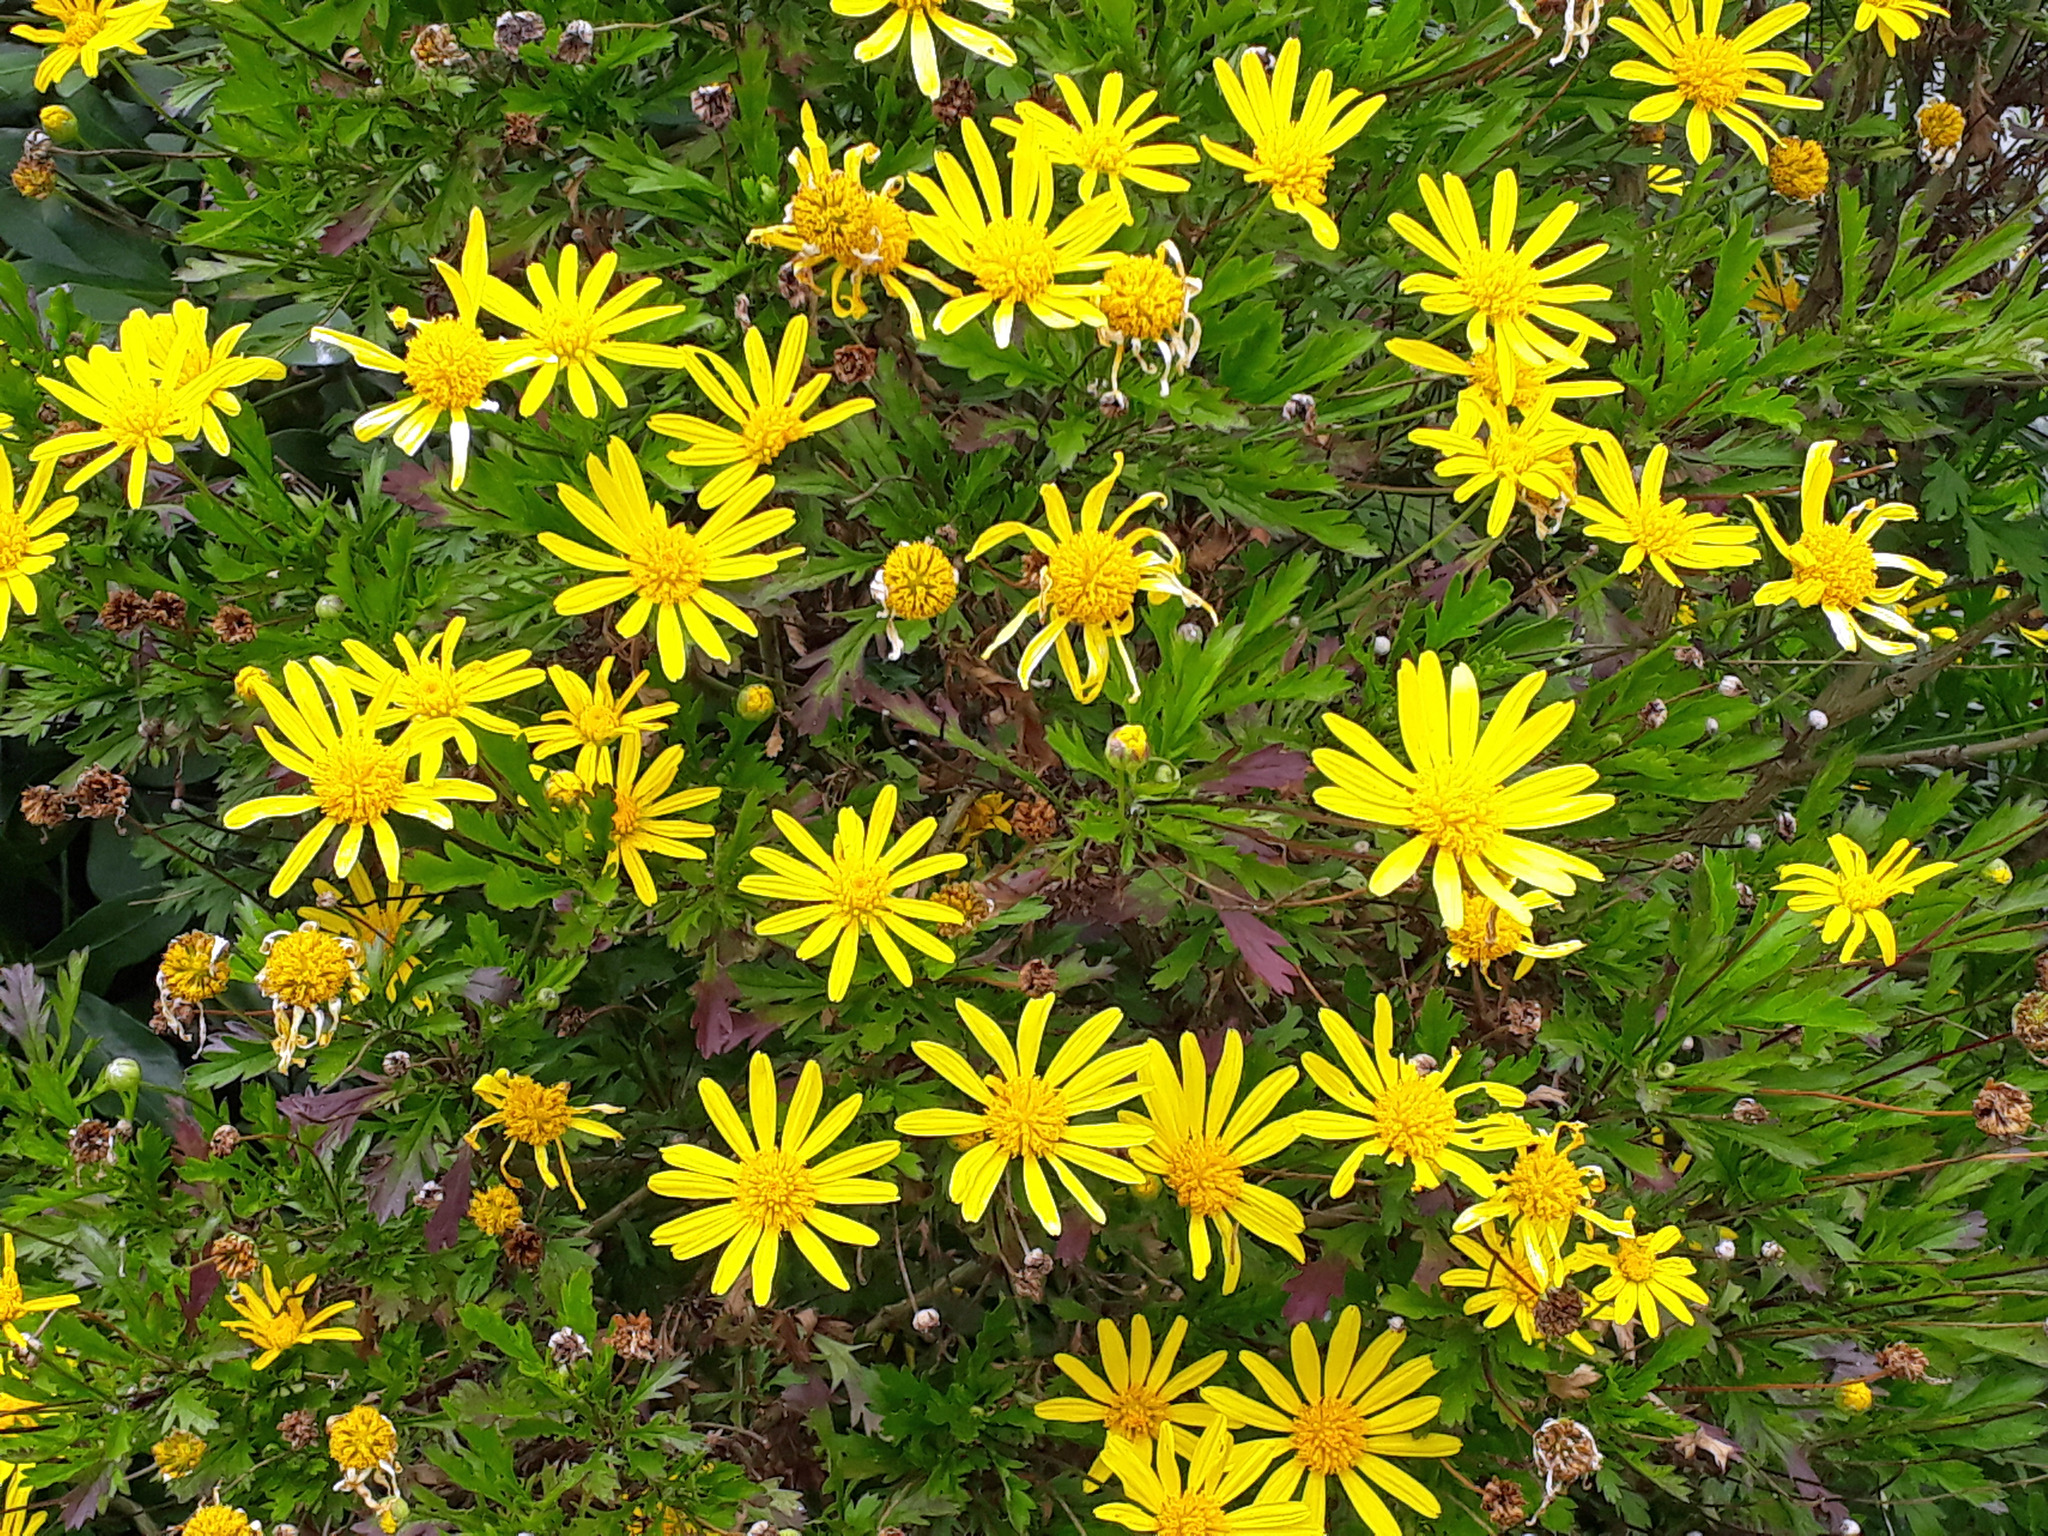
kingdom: Plantae
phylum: Tracheophyta
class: Magnoliopsida
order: Asterales
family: Asteraceae
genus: Euryops
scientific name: Euryops chrysanthemoides
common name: Bull's eye
